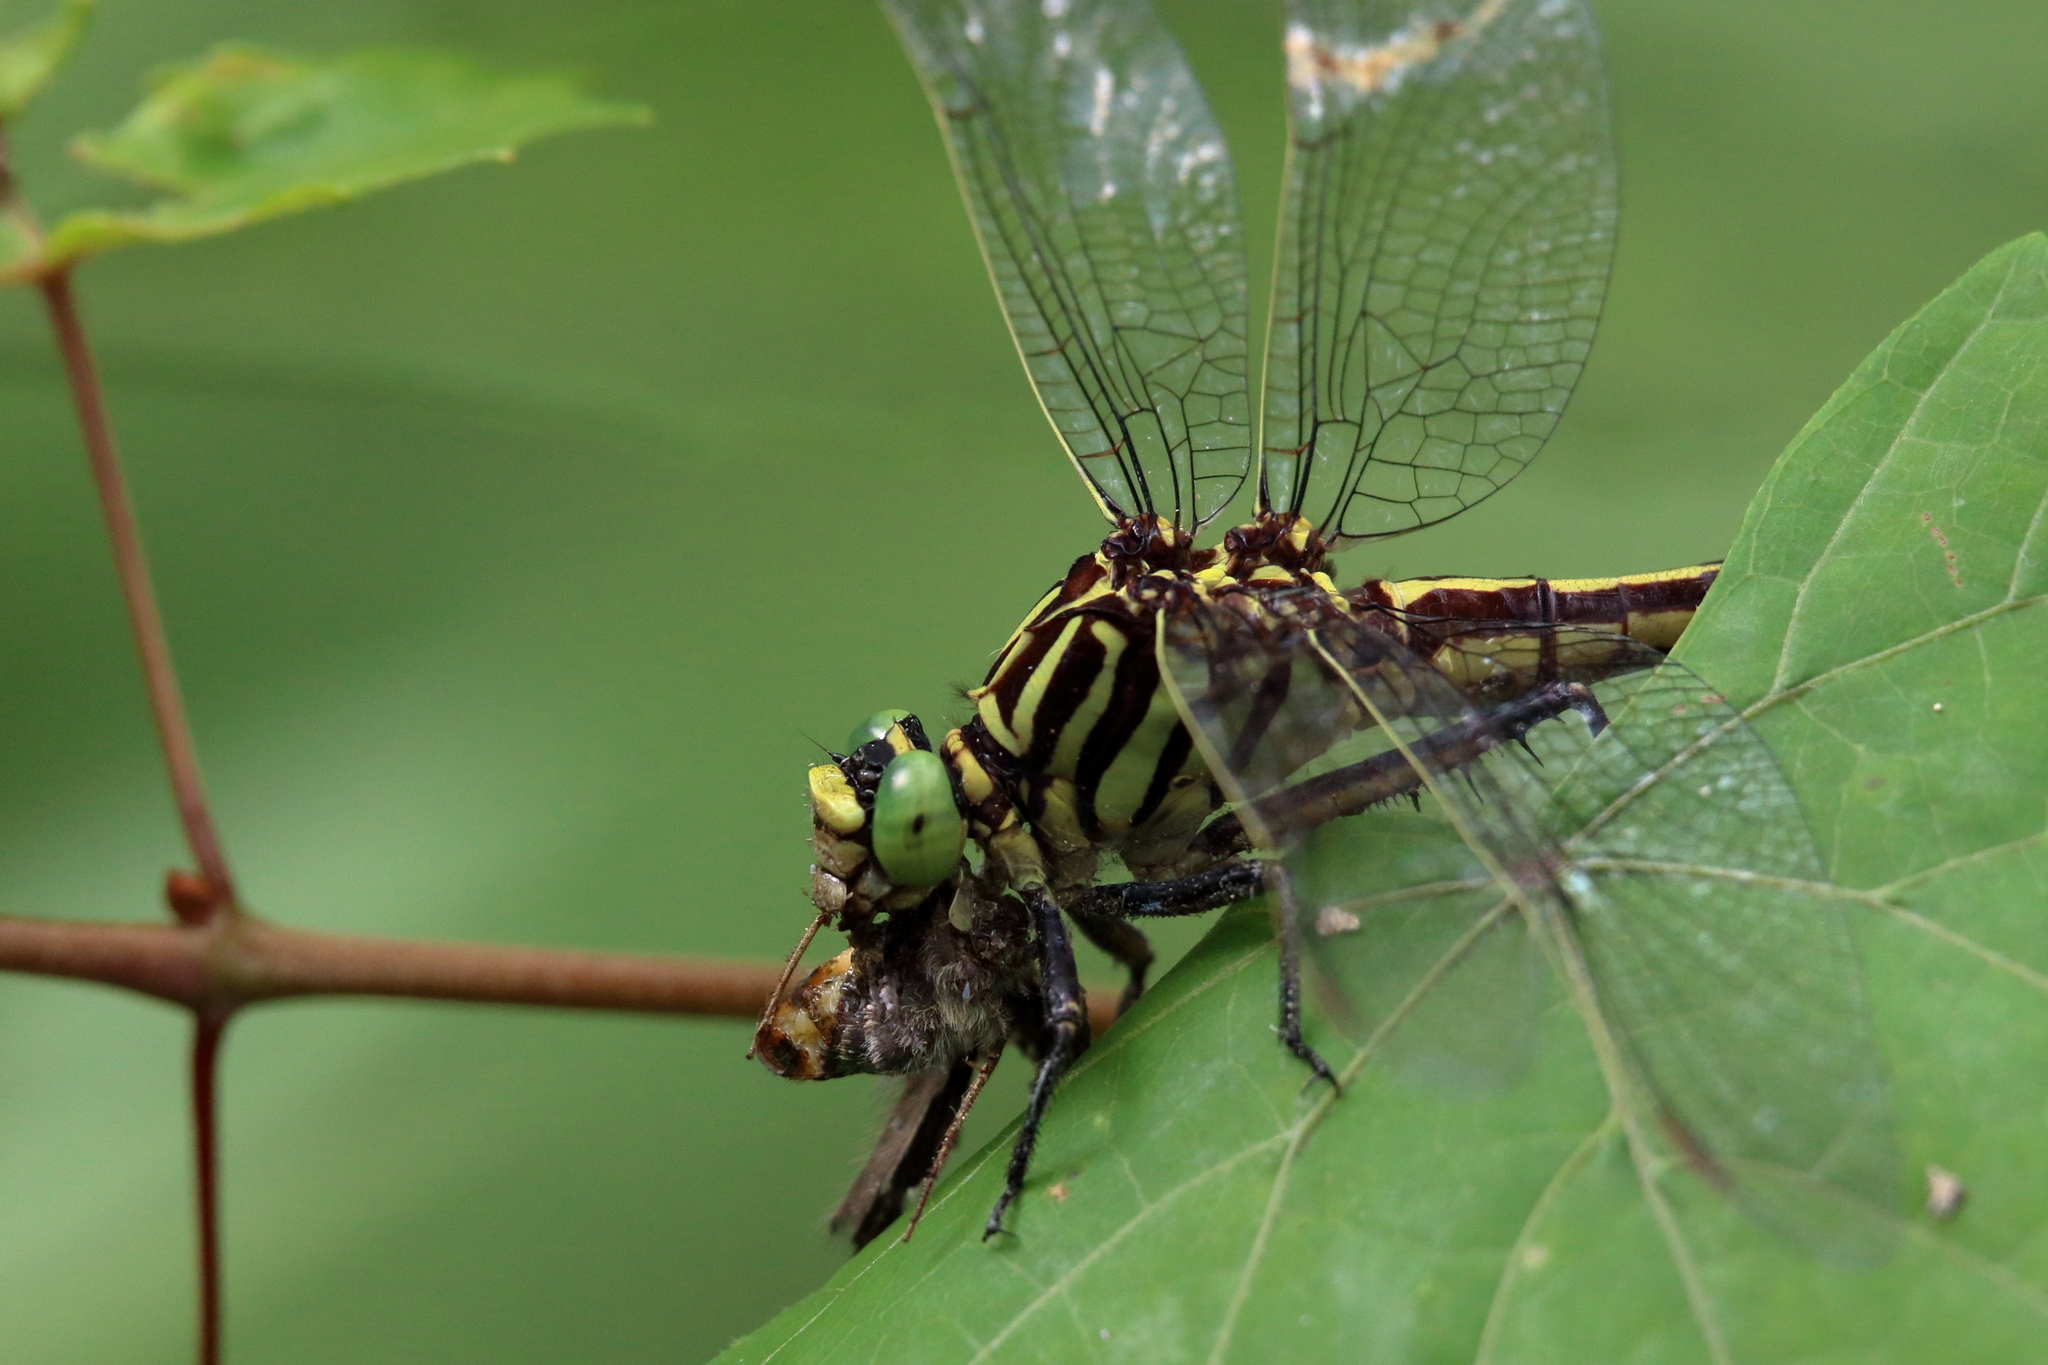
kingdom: Animalia
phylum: Arthropoda
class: Insecta
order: Odonata
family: Gomphidae
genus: Dromogomphus
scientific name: Dromogomphus armatus
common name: Southeastern spinyleg
